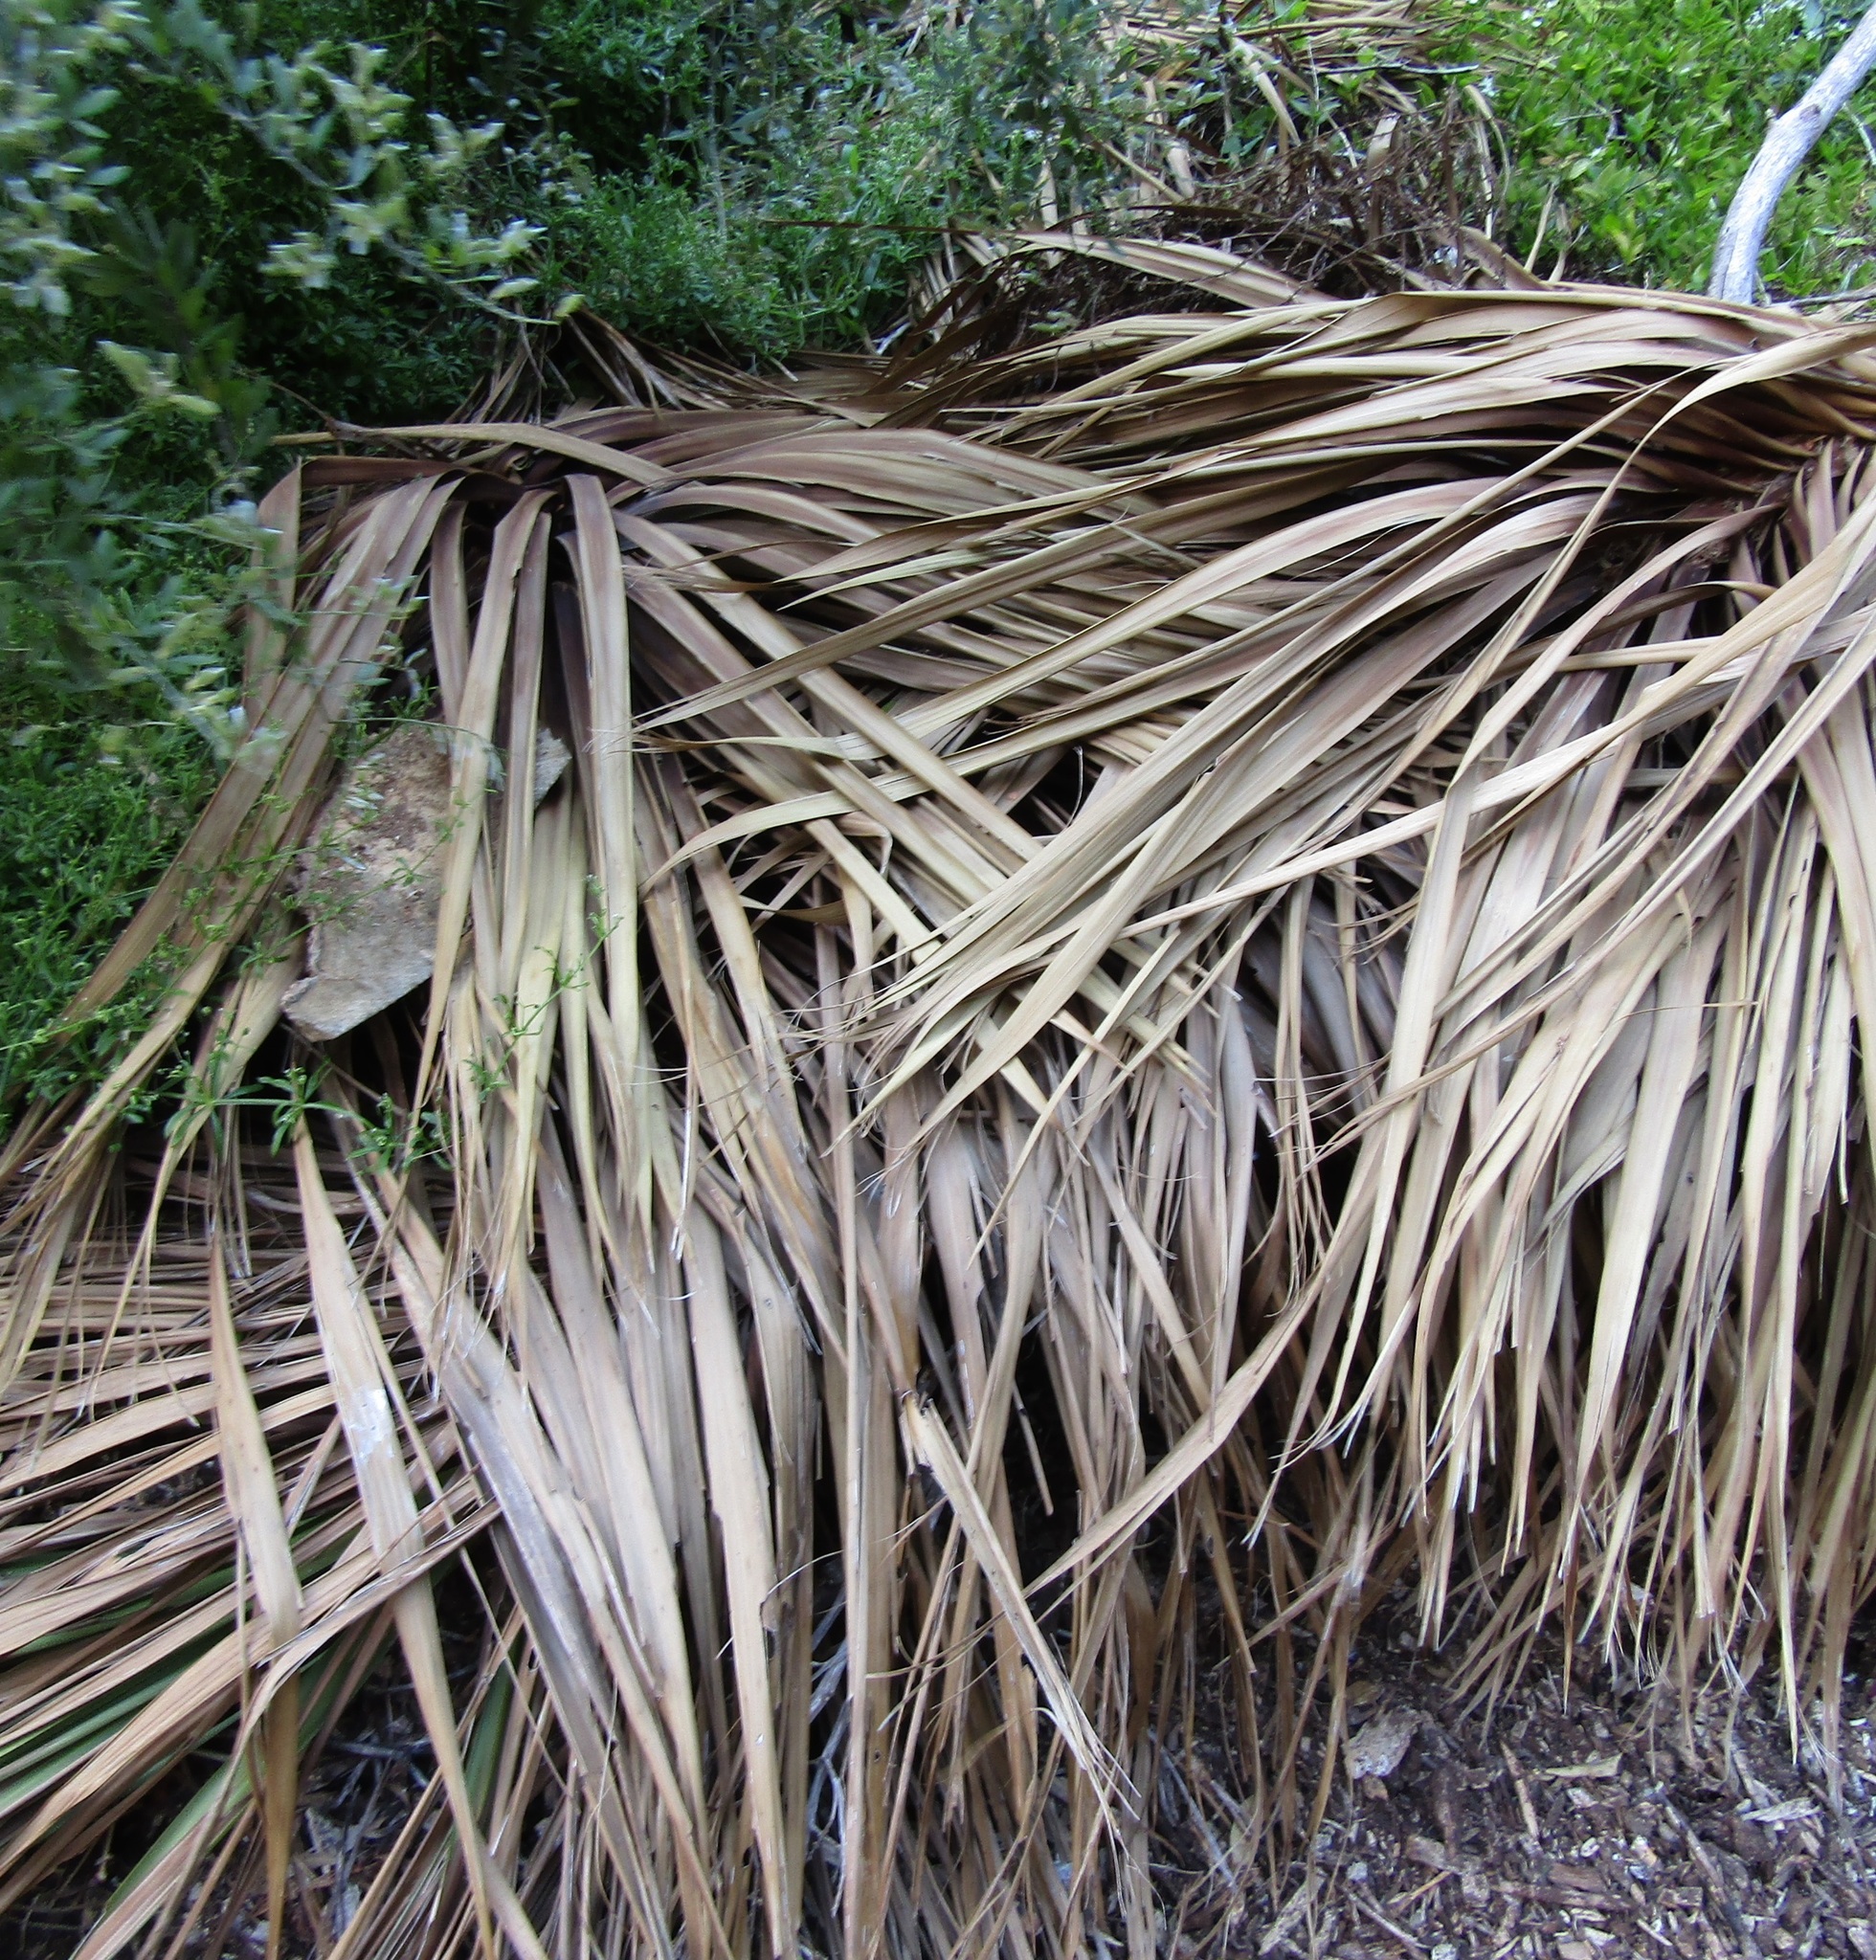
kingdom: Animalia
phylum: Arthropoda
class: Insecta
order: Hemiptera
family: Berytidae
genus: Bezu
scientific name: Bezu wakefieldi
